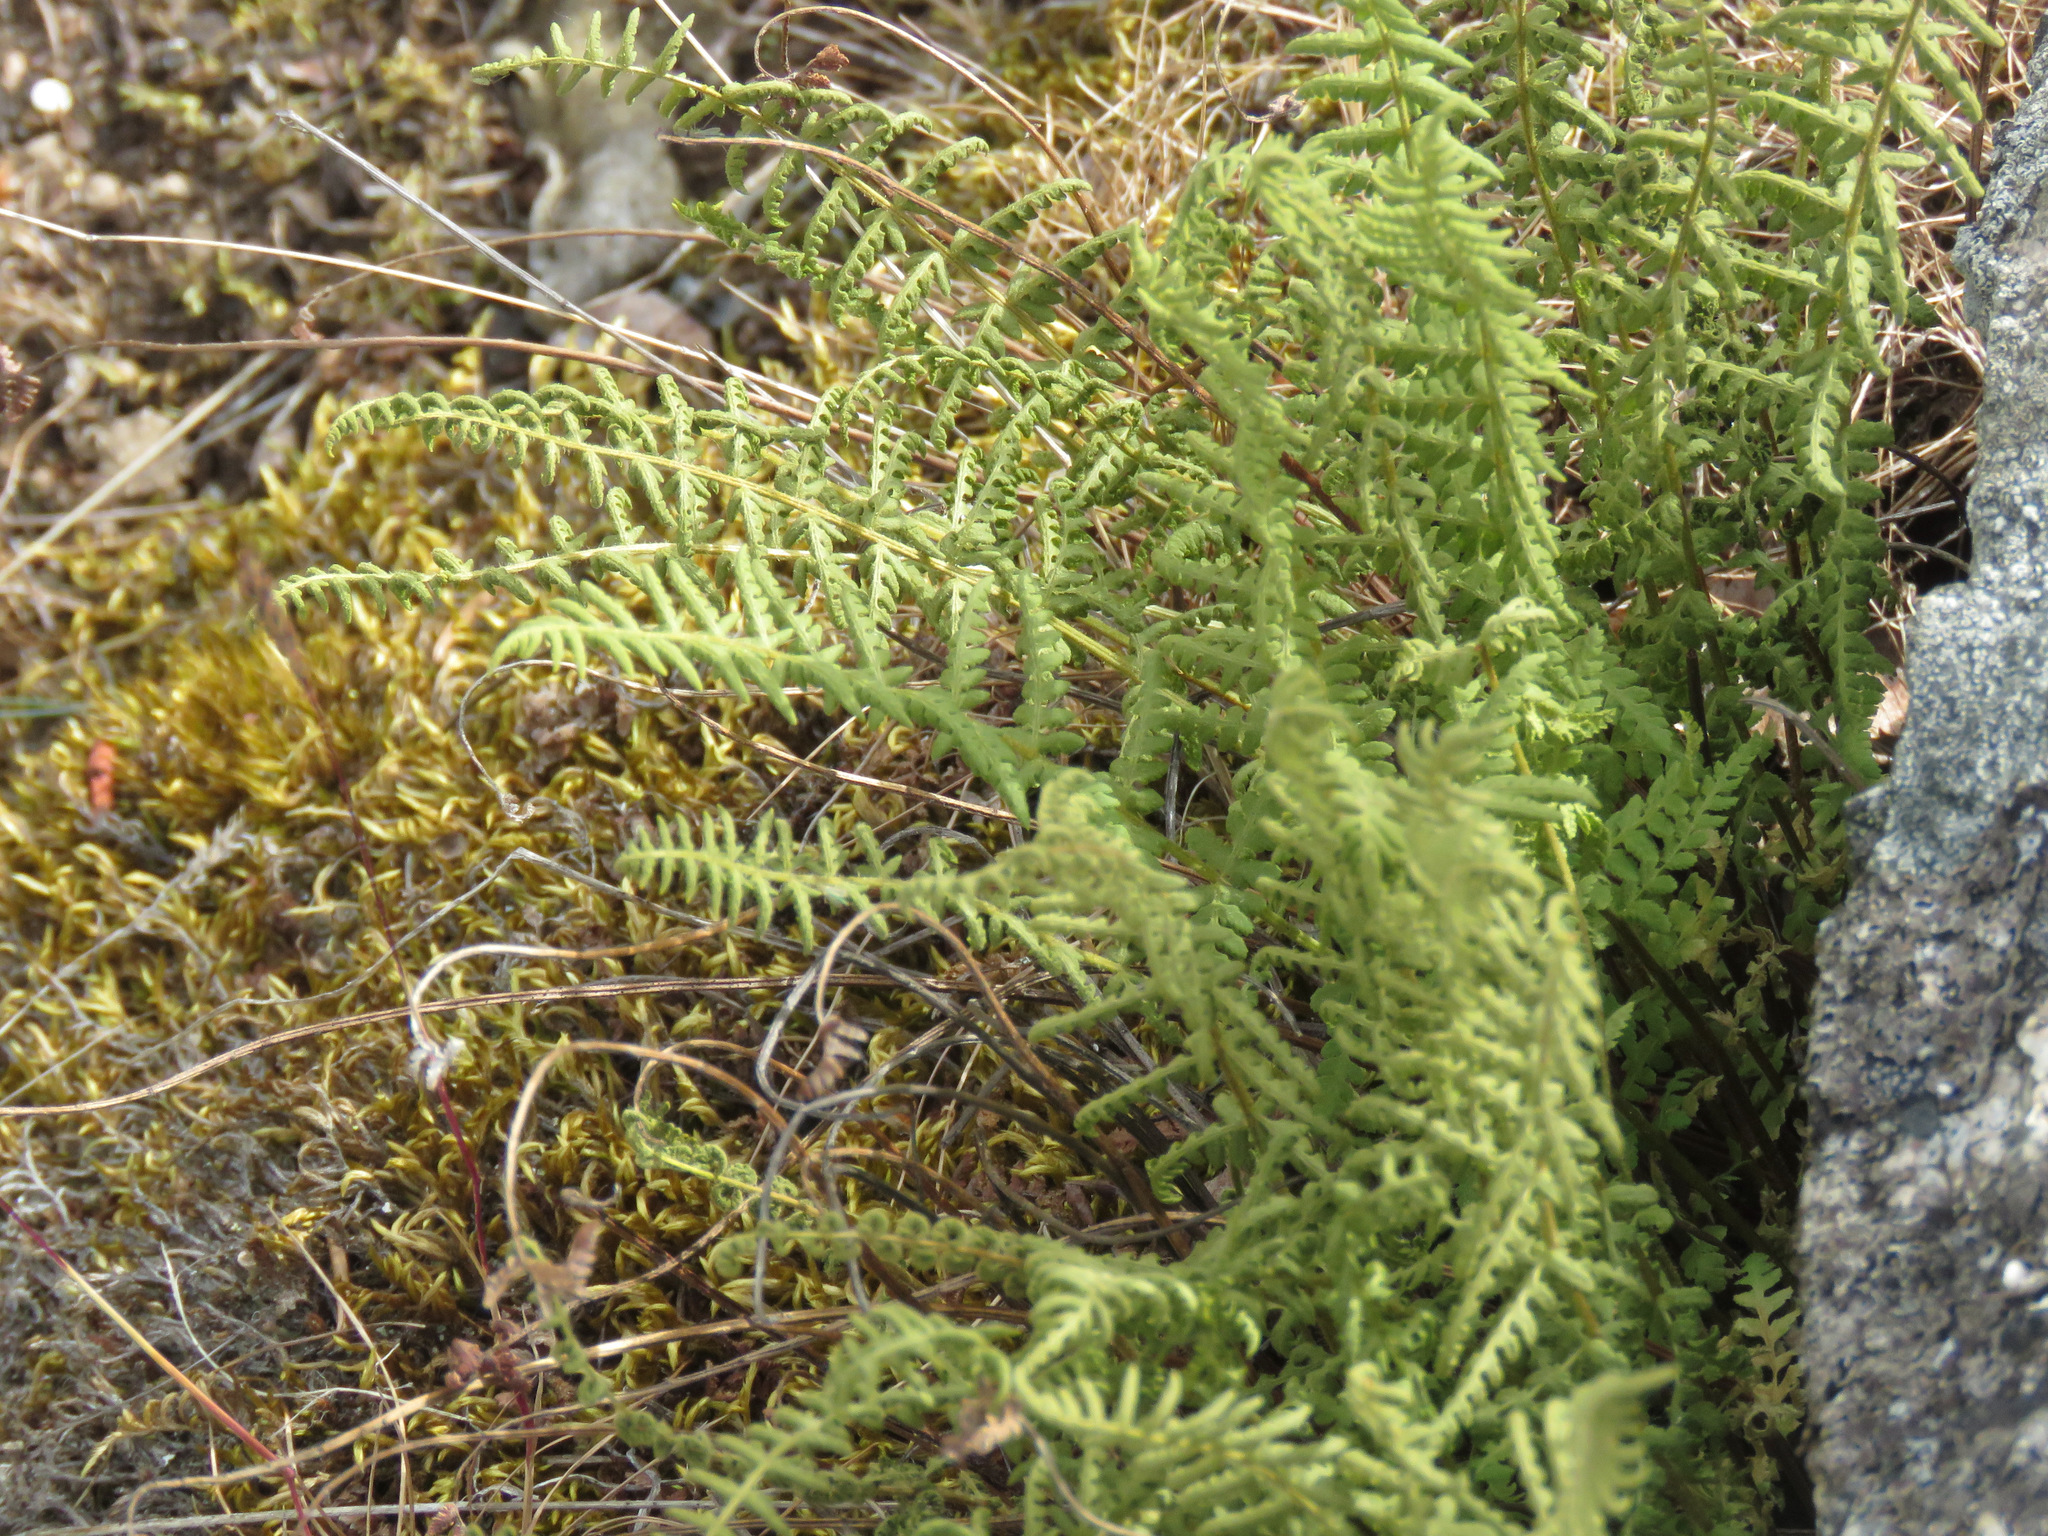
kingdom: Plantae
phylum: Tracheophyta
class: Polypodiopsida
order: Polypodiales
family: Woodsiaceae
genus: Physematium
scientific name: Physematium scopulinum
